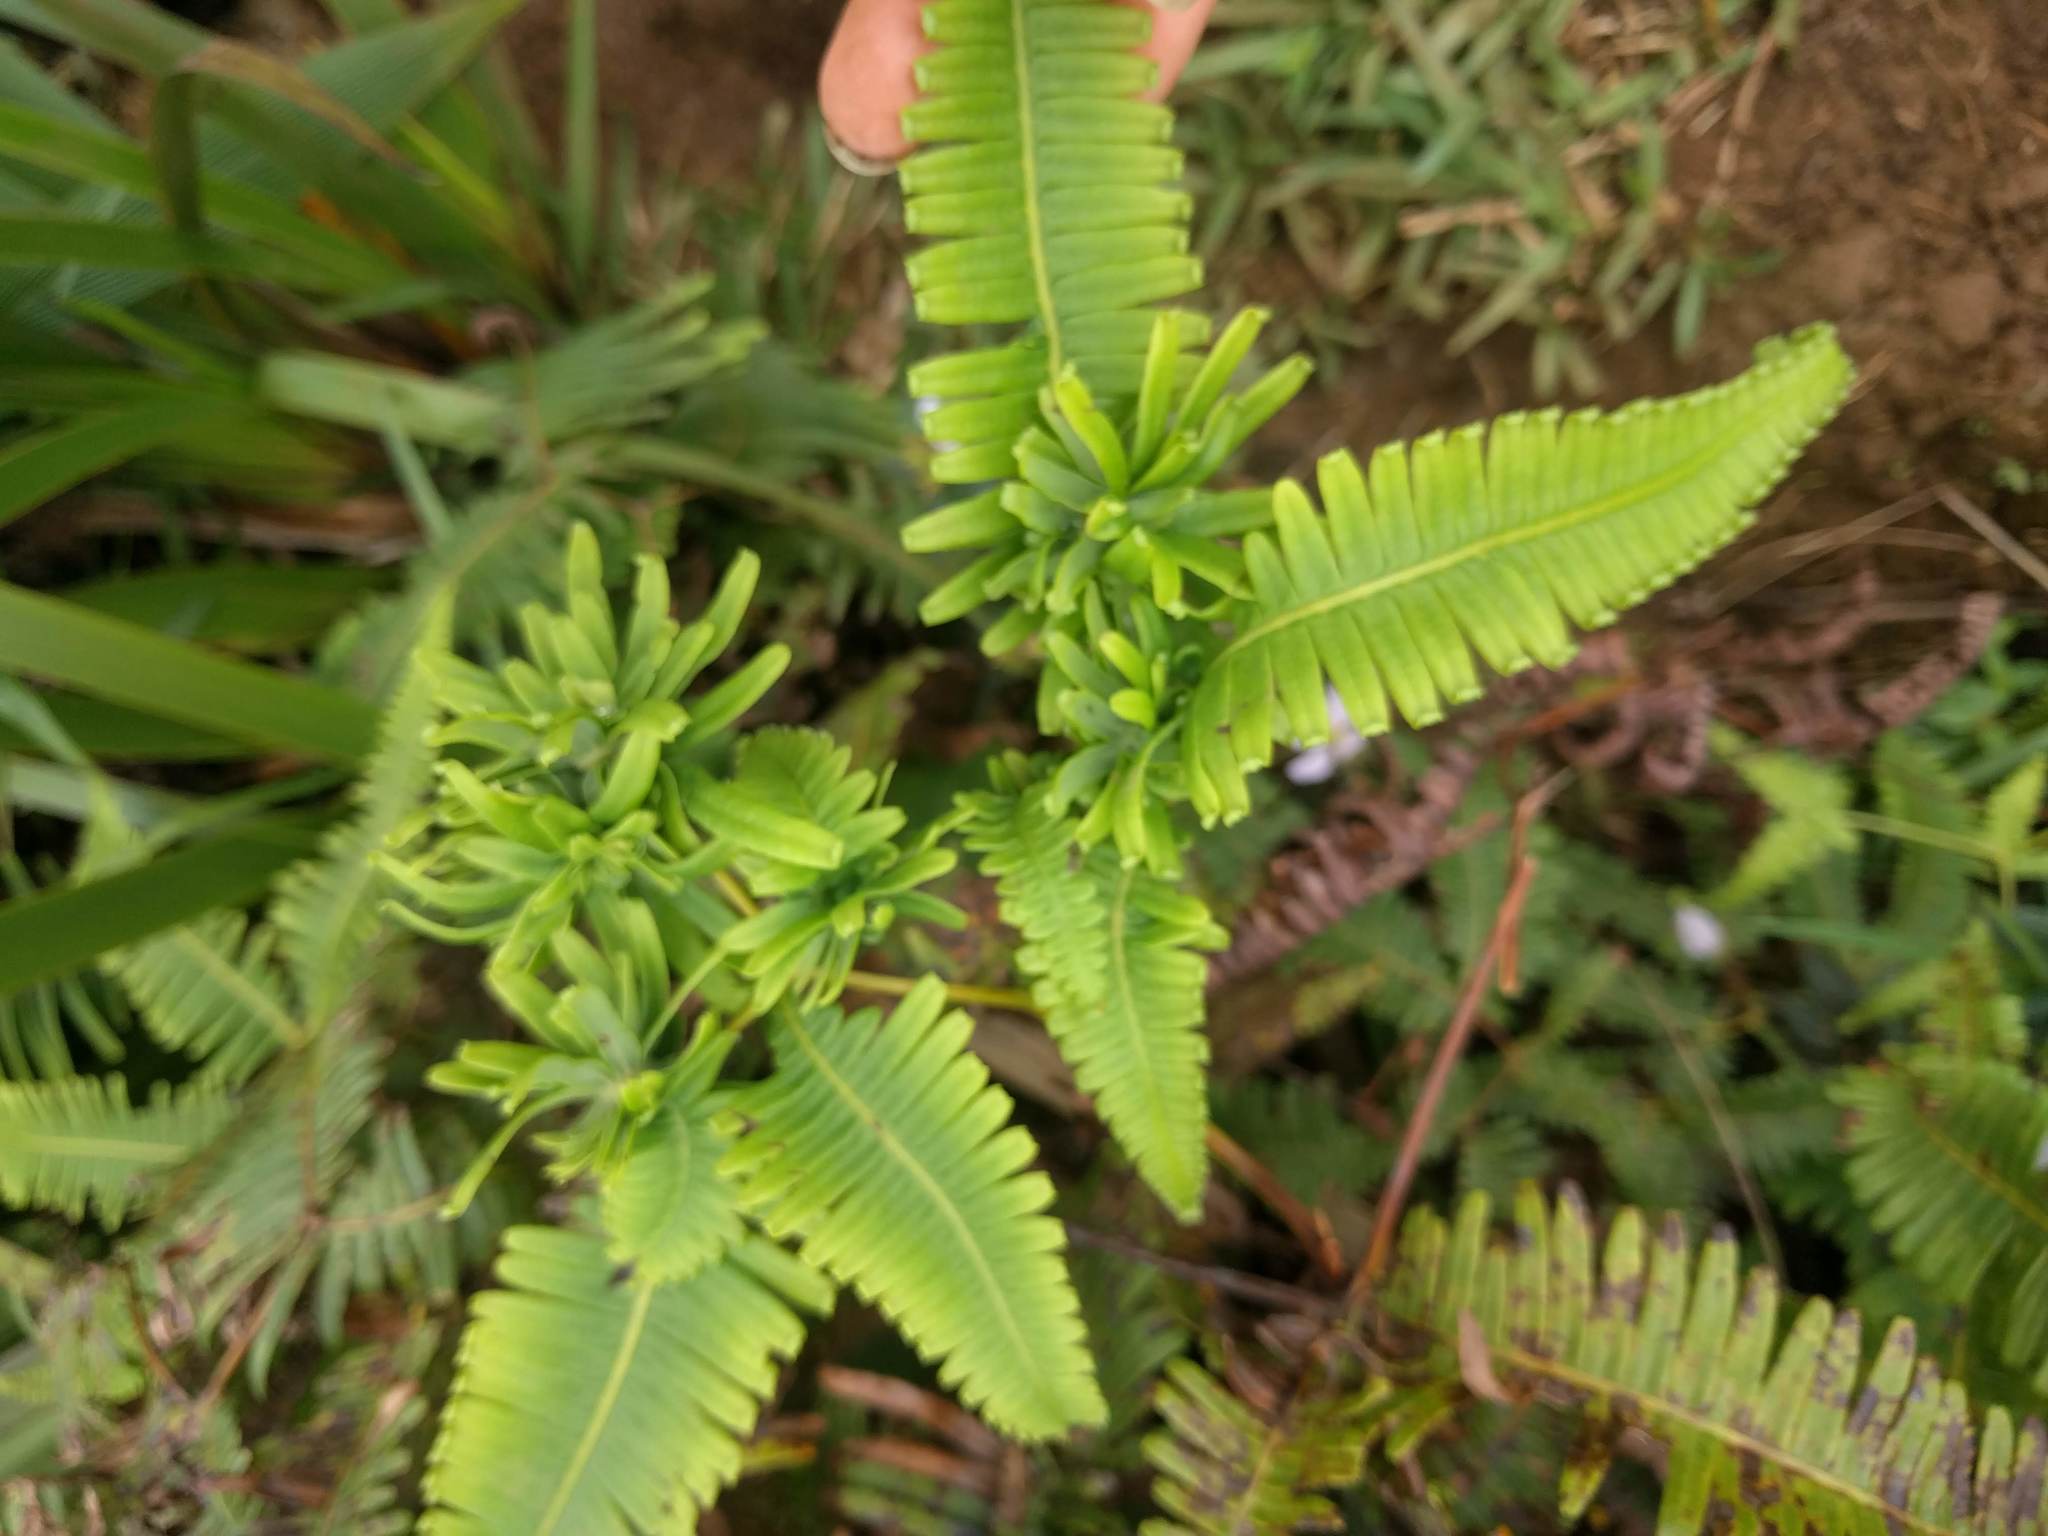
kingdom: Animalia
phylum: Arthropoda
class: Insecta
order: Hemiptera
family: Pseudococcidae
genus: Nesopedronia
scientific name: Nesopedronia hawaiiensis
